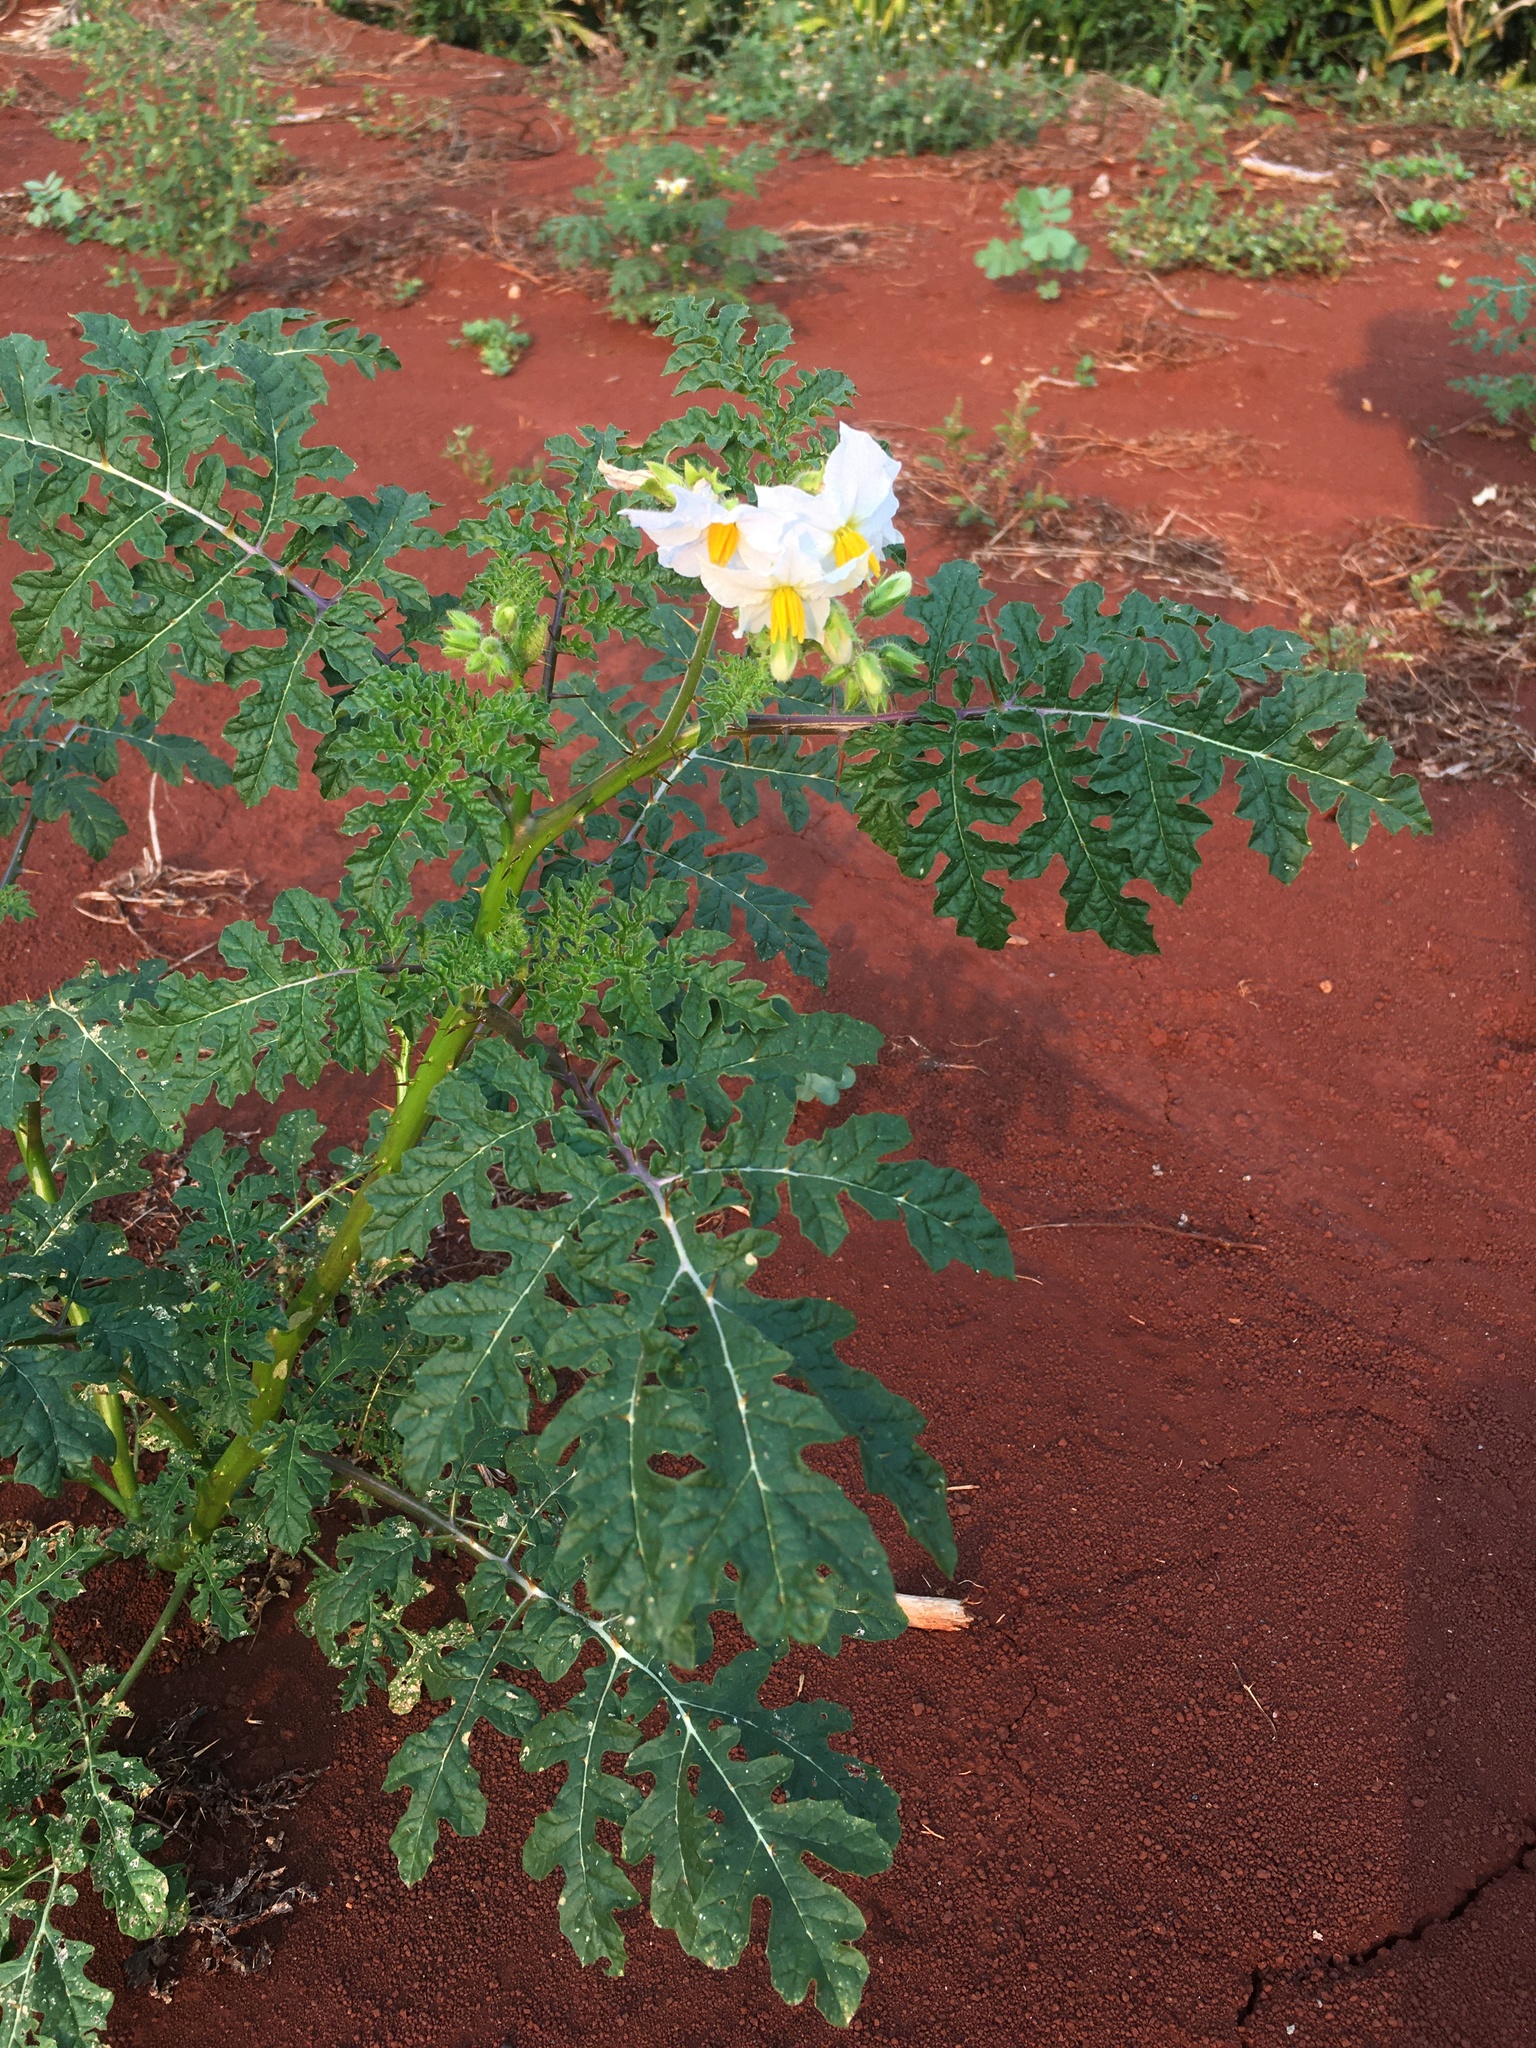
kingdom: Plantae
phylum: Tracheophyta
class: Magnoliopsida
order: Solanales
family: Solanaceae
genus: Solanum
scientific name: Solanum sisymbriifolium
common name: Red buffalo-bur
